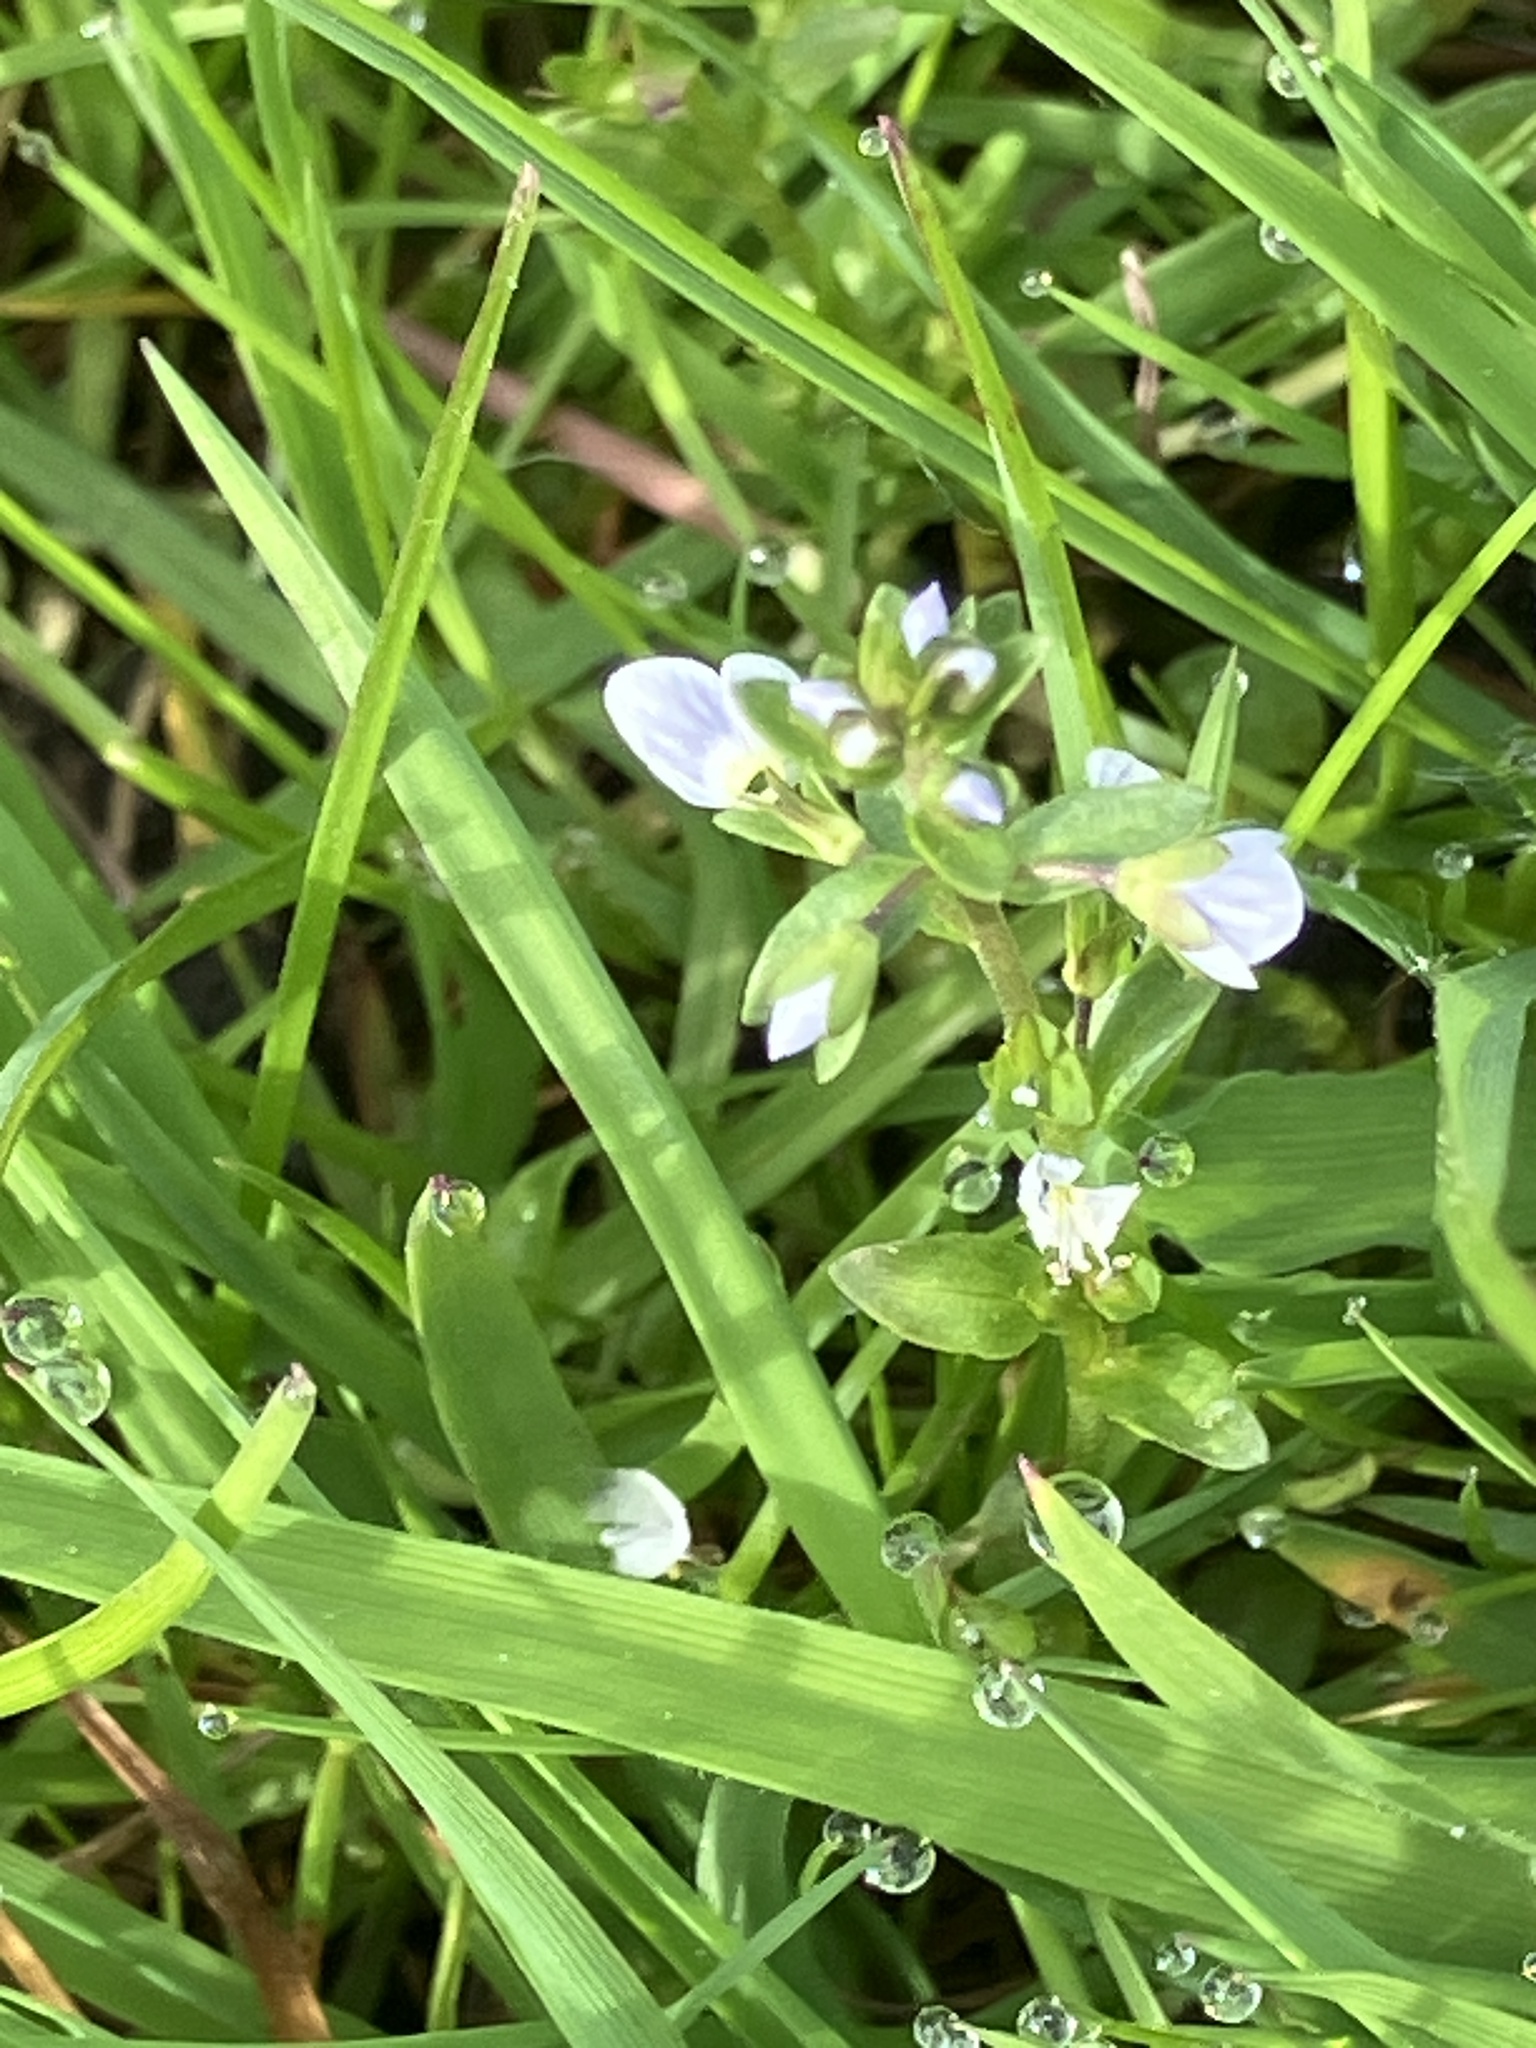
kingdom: Plantae
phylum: Tracheophyta
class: Magnoliopsida
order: Lamiales
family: Plantaginaceae
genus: Veronica
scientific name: Veronica serpyllifolia
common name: Thyme-leaved speedwell
